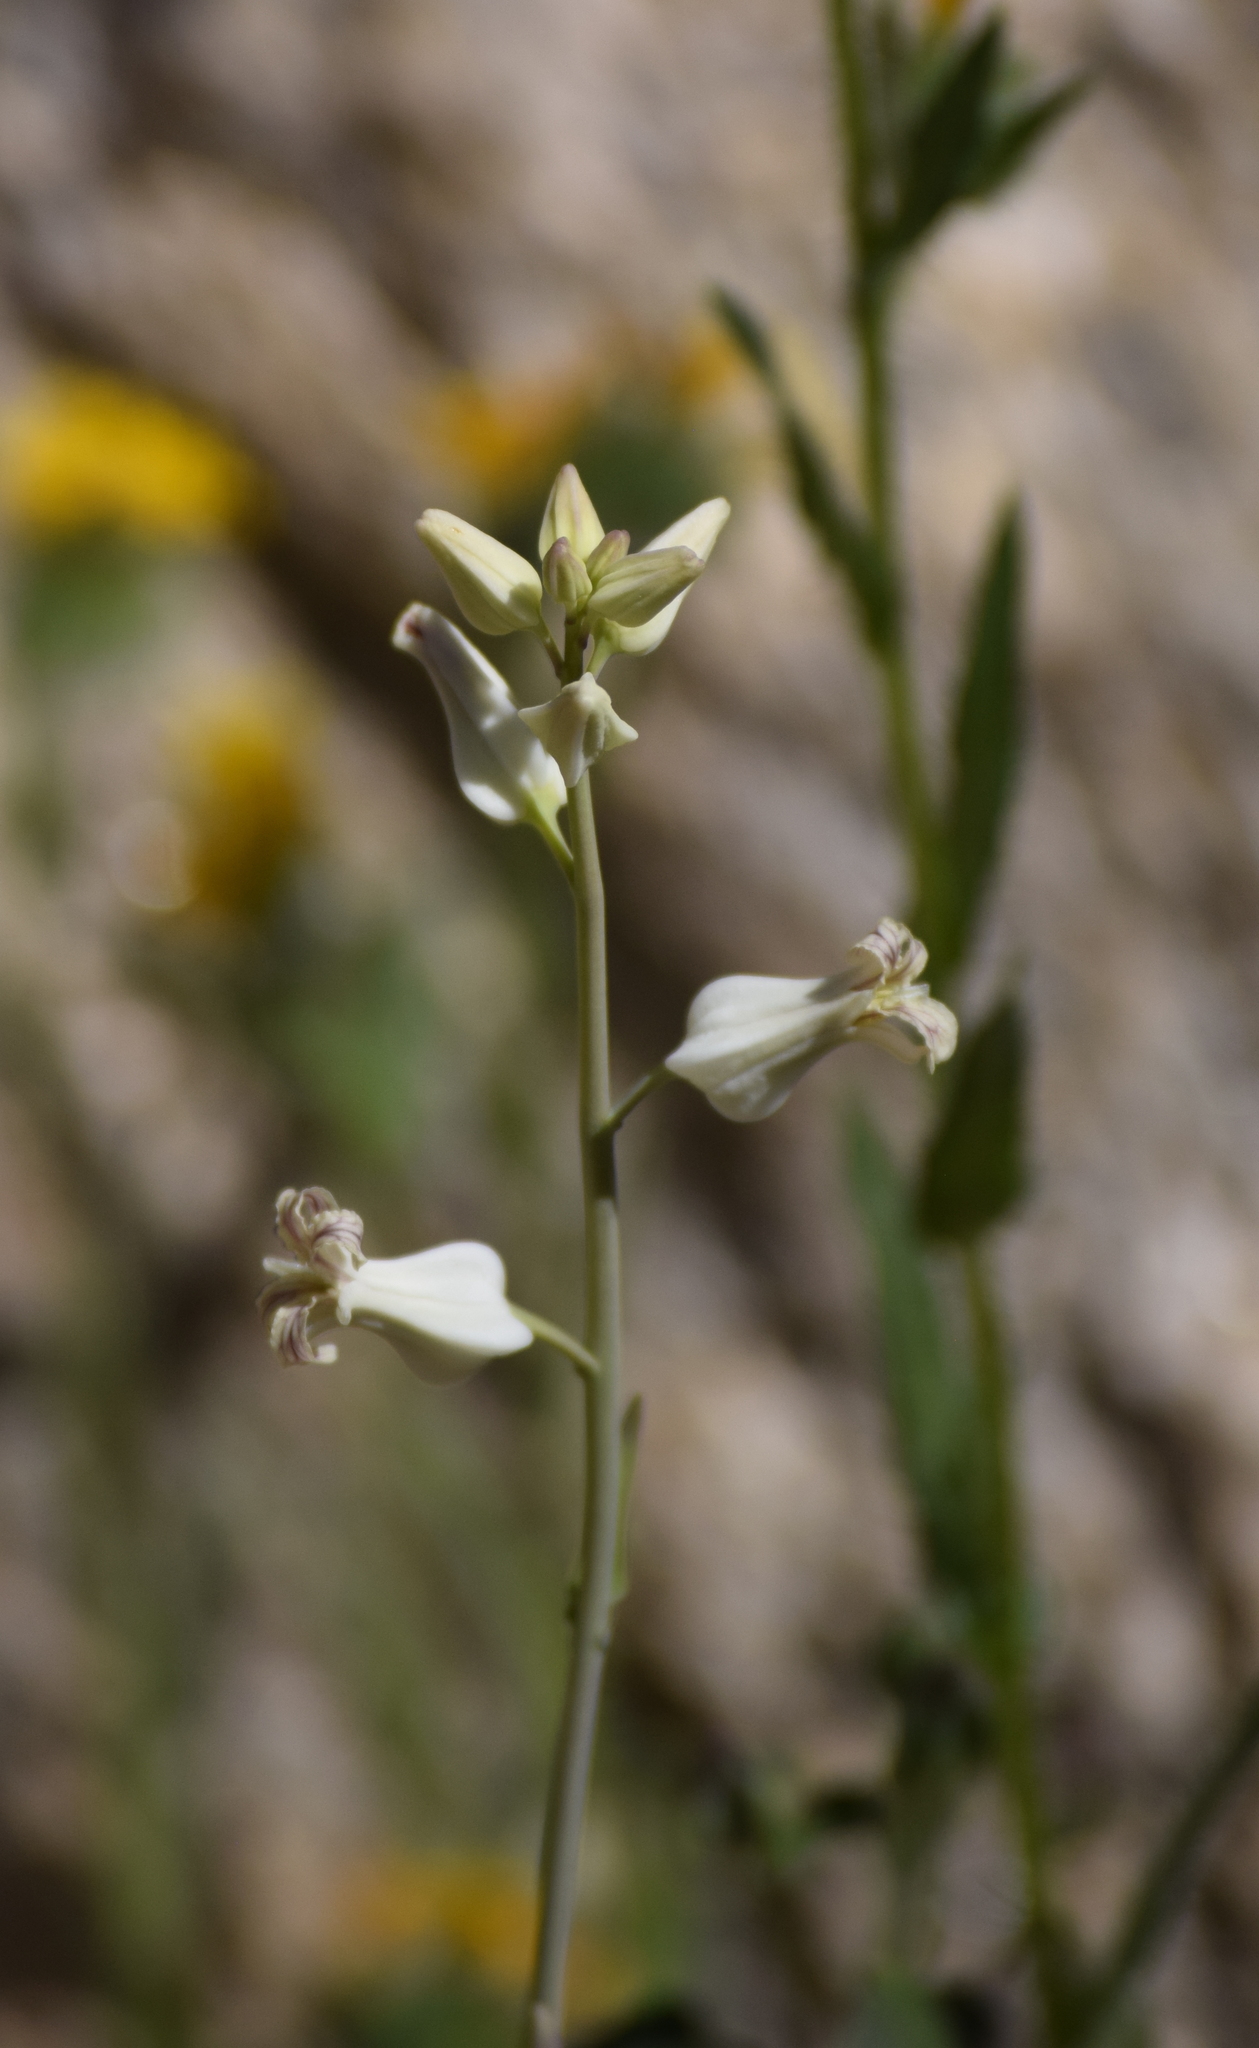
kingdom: Plantae
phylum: Tracheophyta
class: Magnoliopsida
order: Brassicales
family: Brassicaceae
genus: Streptanthus
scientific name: Streptanthus carinatus
